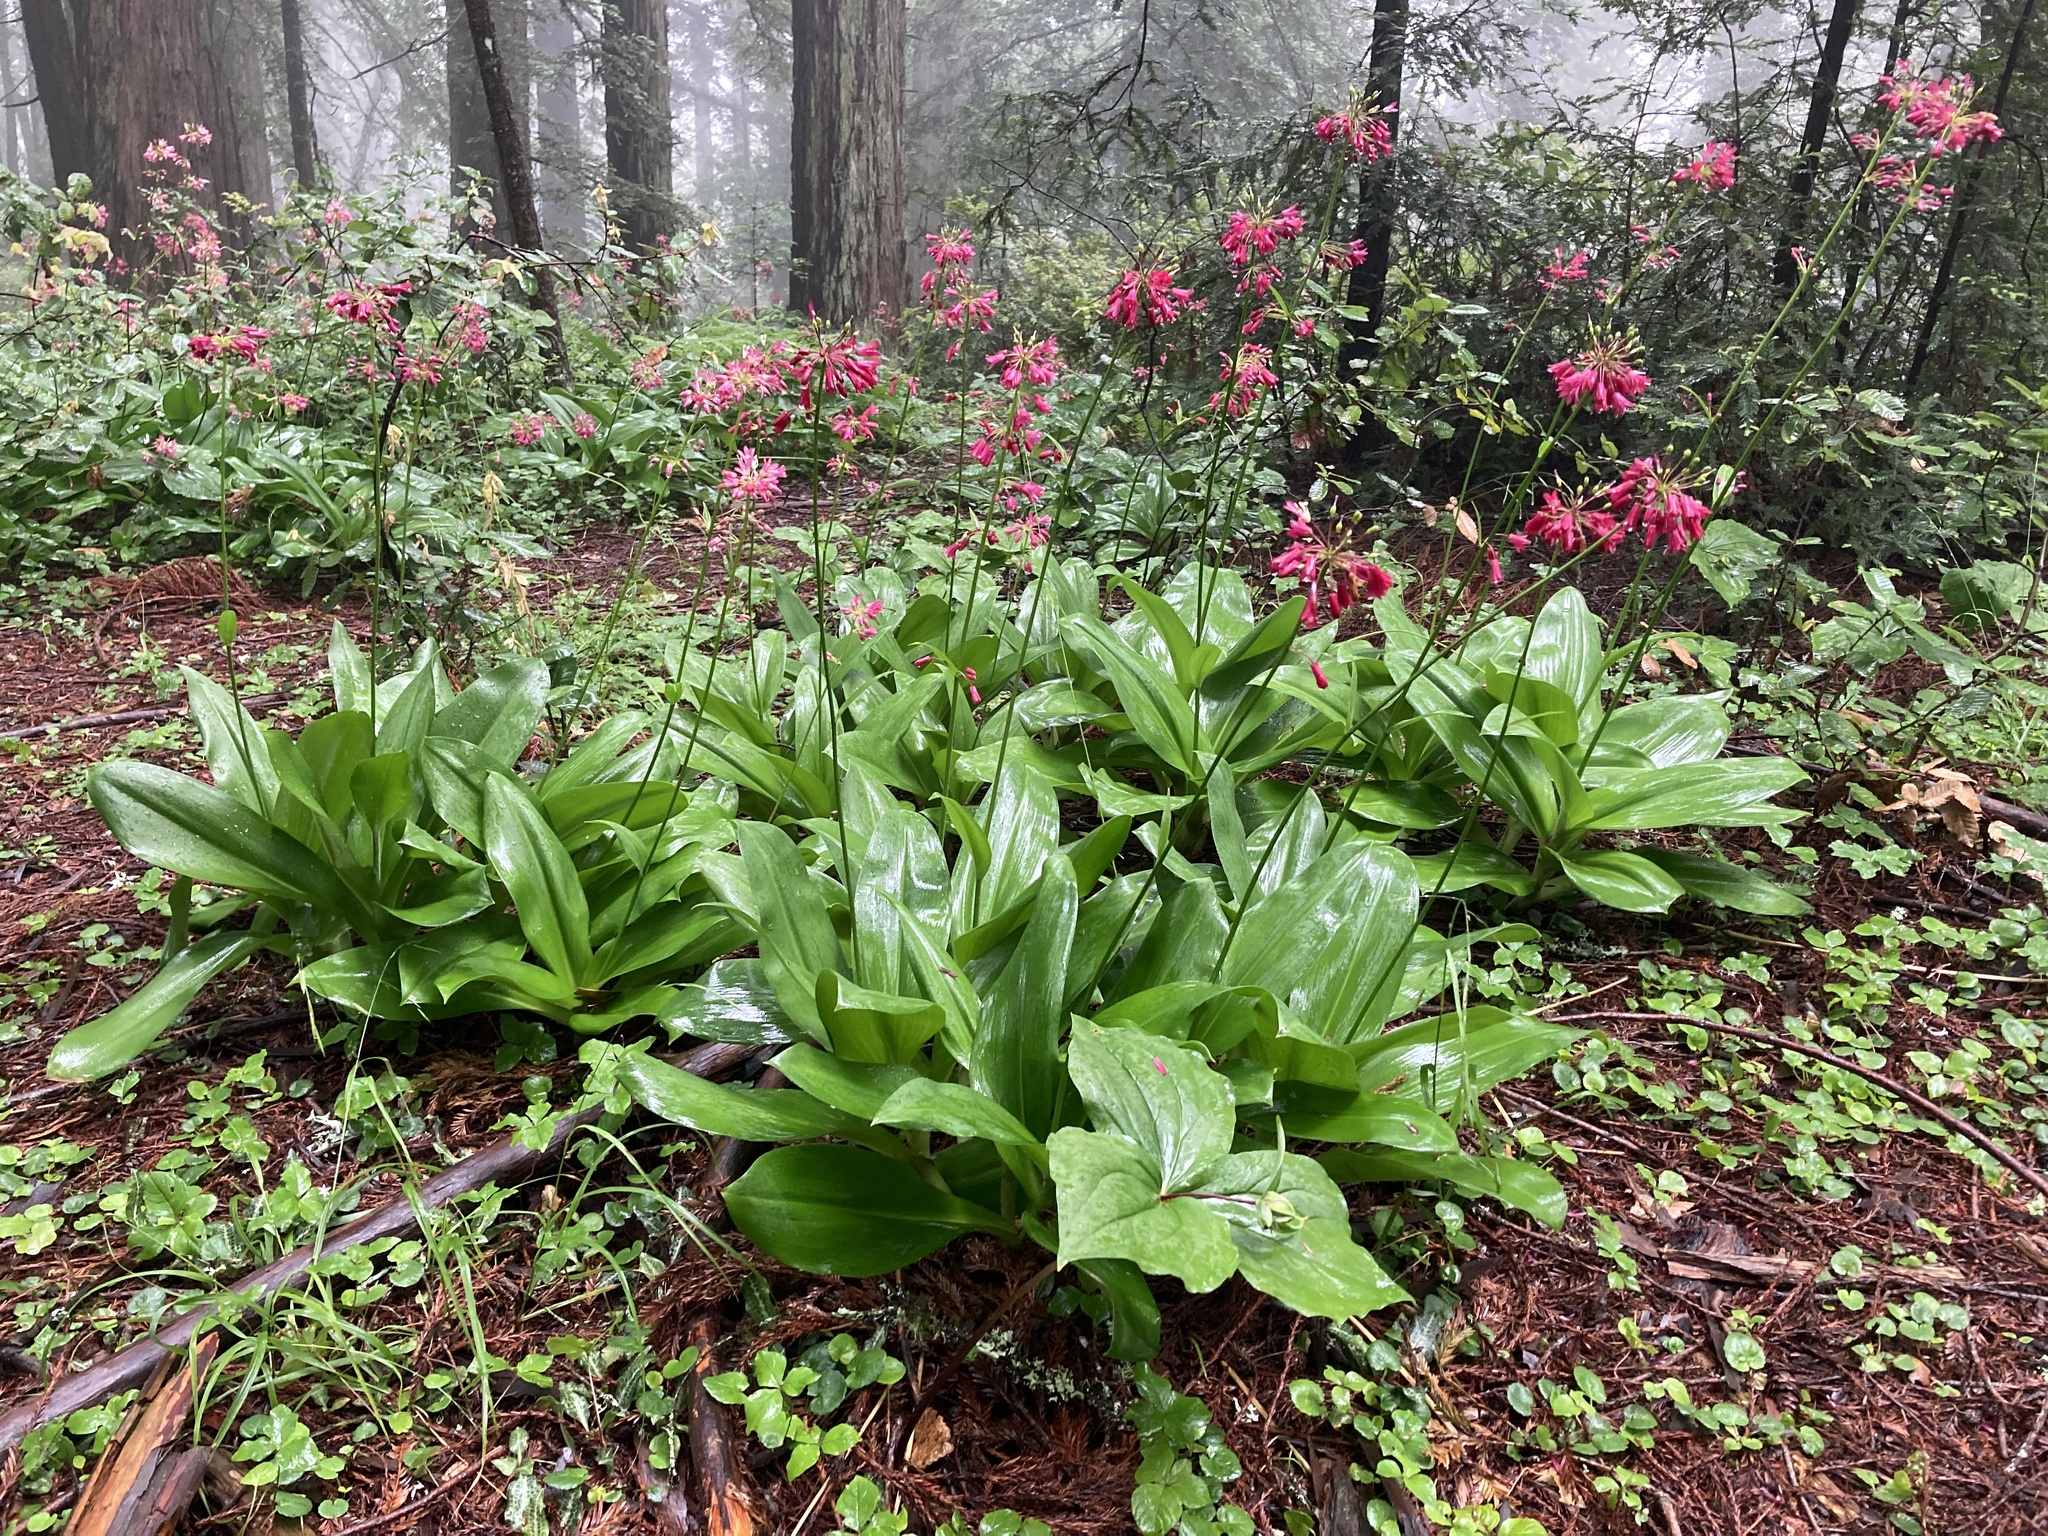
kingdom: Plantae
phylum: Tracheophyta
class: Liliopsida
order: Liliales
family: Liliaceae
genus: Clintonia
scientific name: Clintonia andrewsiana
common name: Red clintonia
